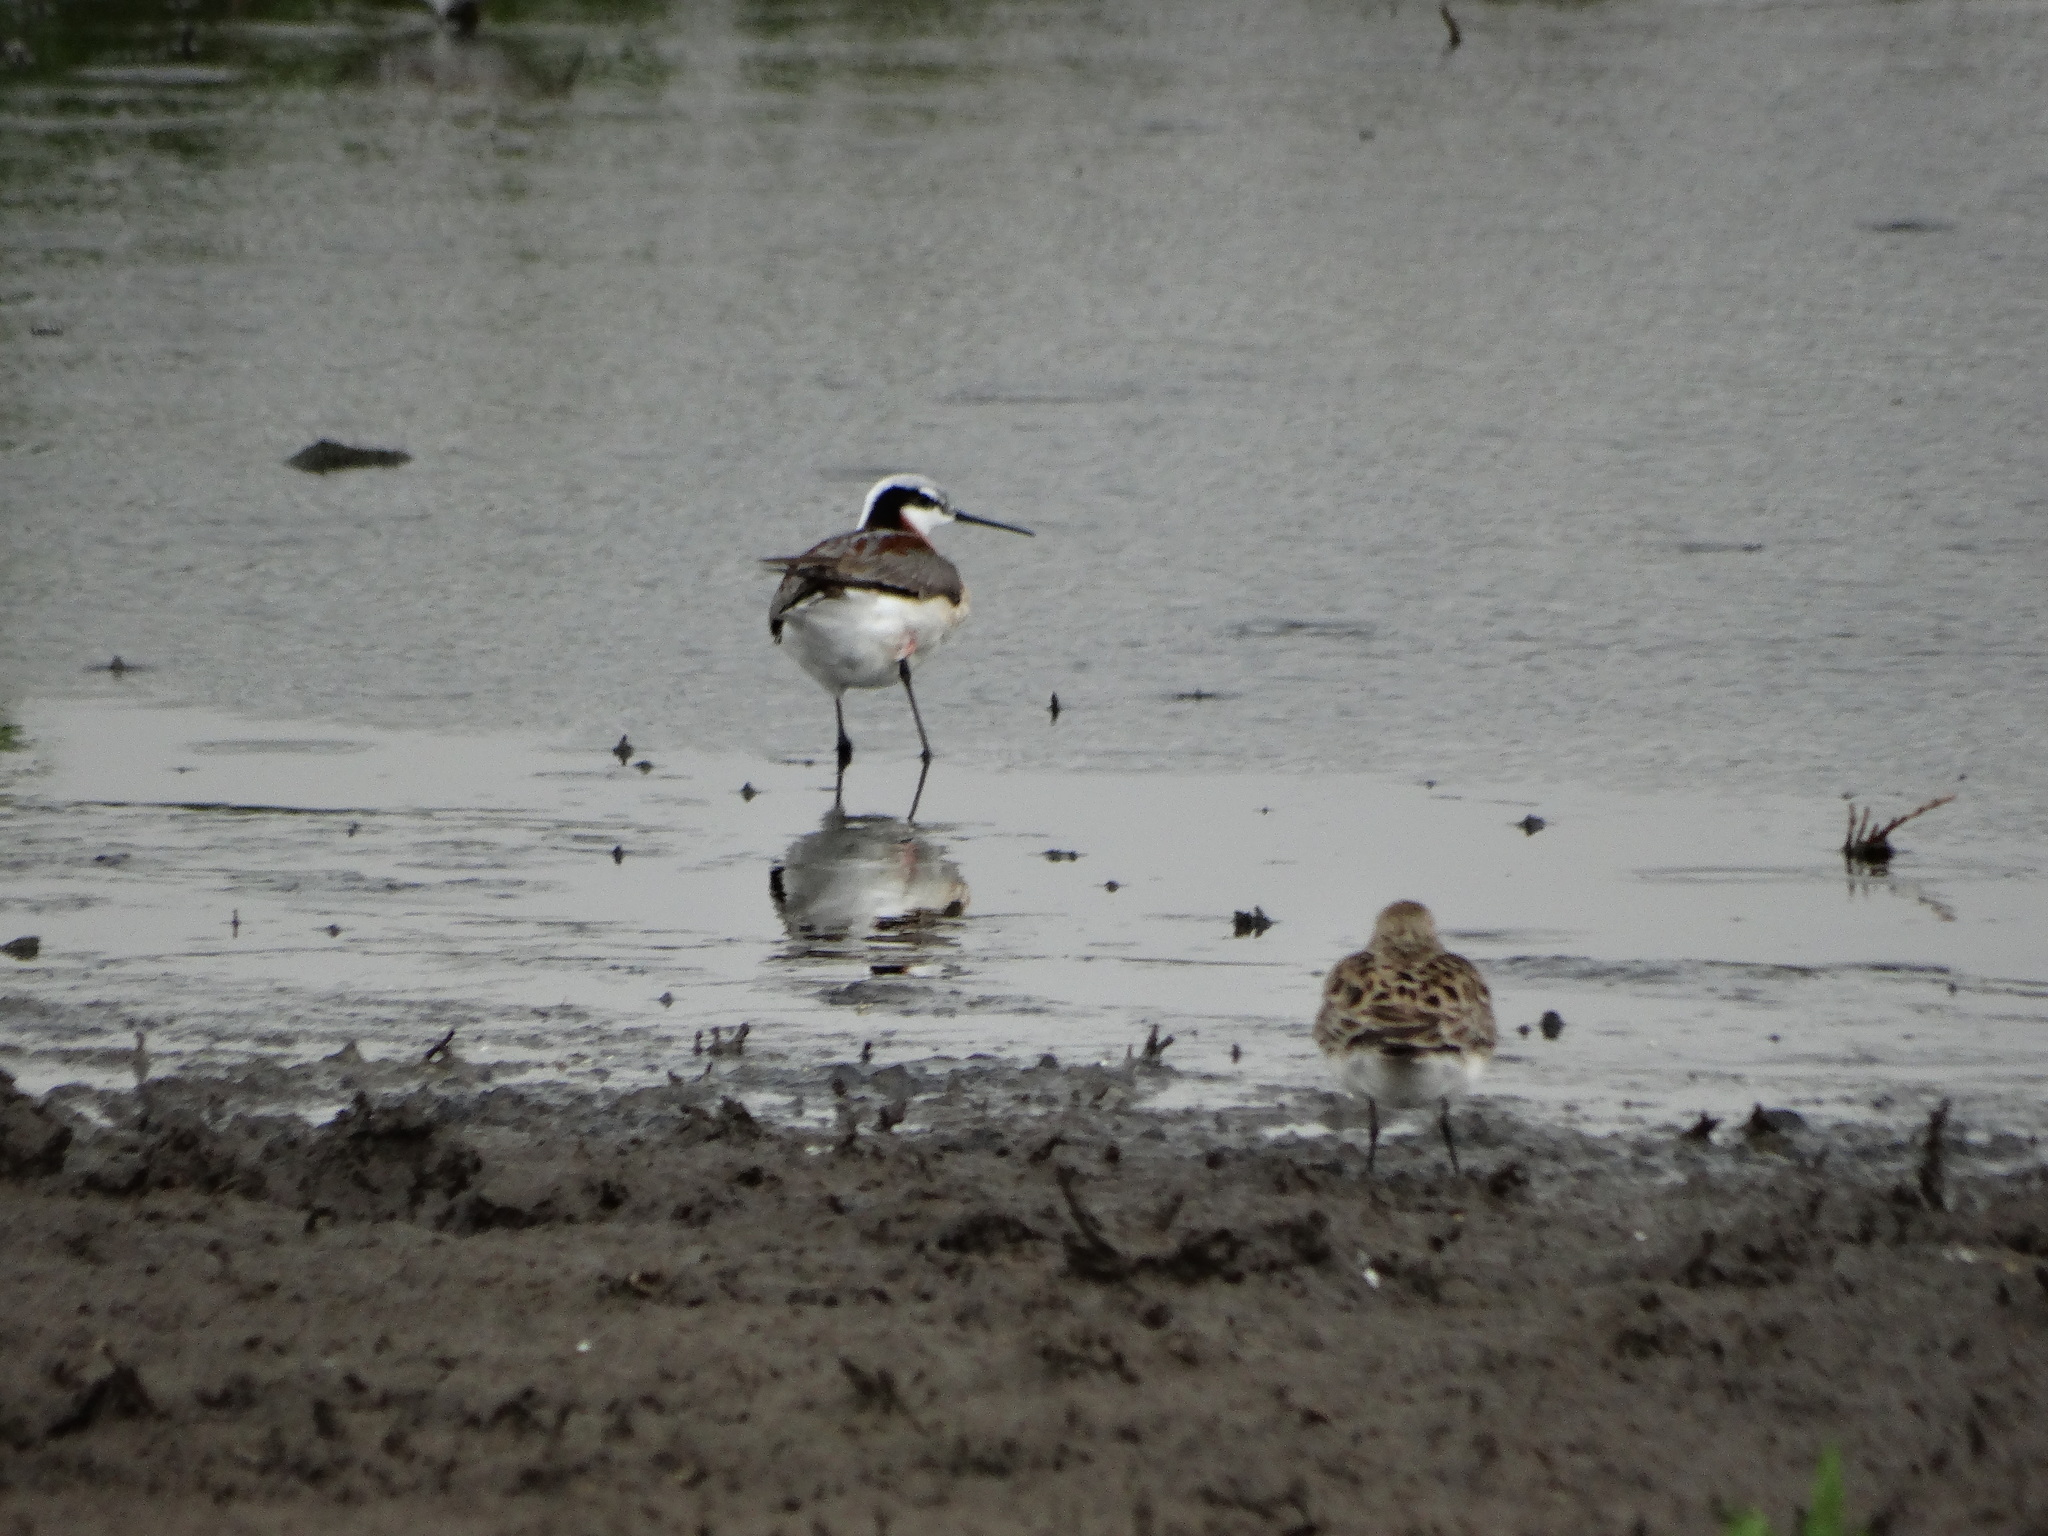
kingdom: Animalia
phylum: Chordata
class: Aves
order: Charadriiformes
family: Scolopacidae
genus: Phalaropus
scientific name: Phalaropus tricolor
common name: Wilson's phalarope
